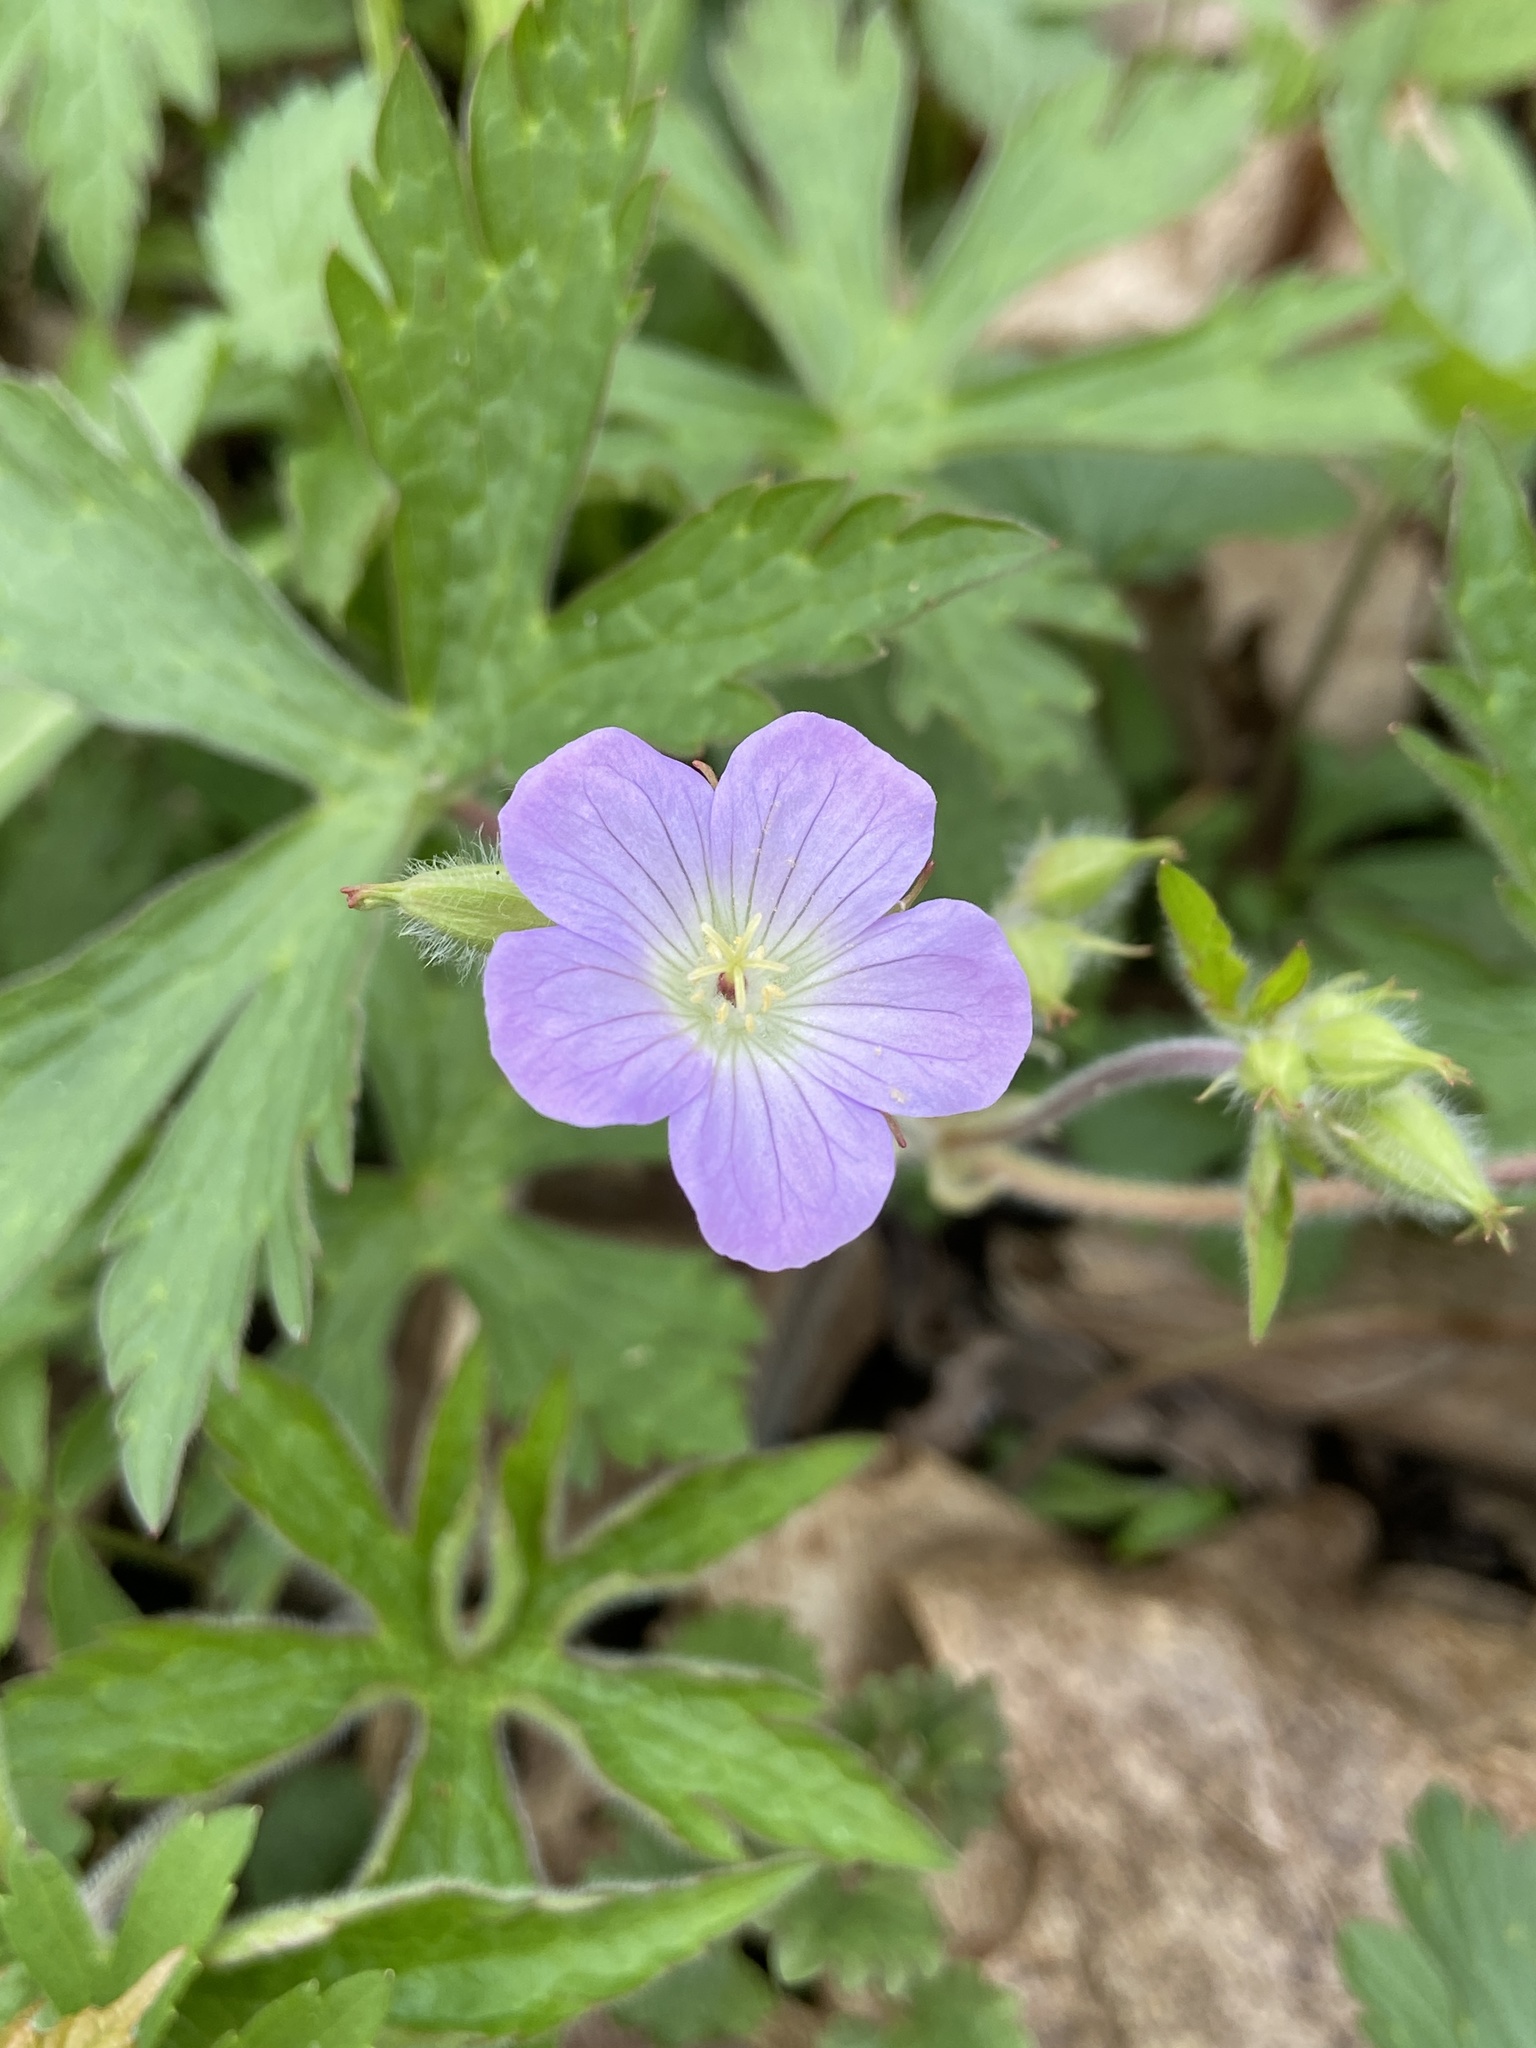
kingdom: Plantae
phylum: Tracheophyta
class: Magnoliopsida
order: Geraniales
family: Geraniaceae
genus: Geranium
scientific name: Geranium maculatum
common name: Spotted geranium
